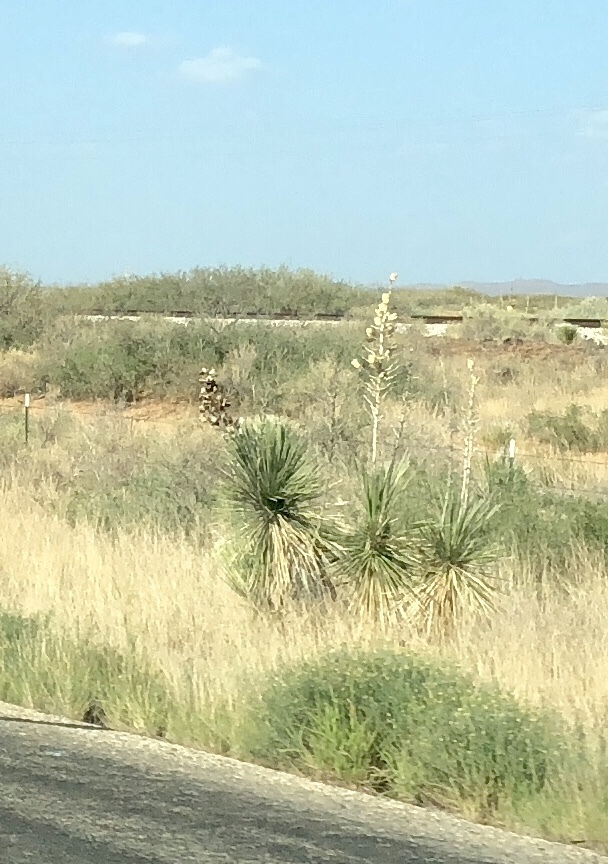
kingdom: Plantae
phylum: Tracheophyta
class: Liliopsida
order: Asparagales
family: Asparagaceae
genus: Yucca
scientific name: Yucca elata
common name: Palmella
